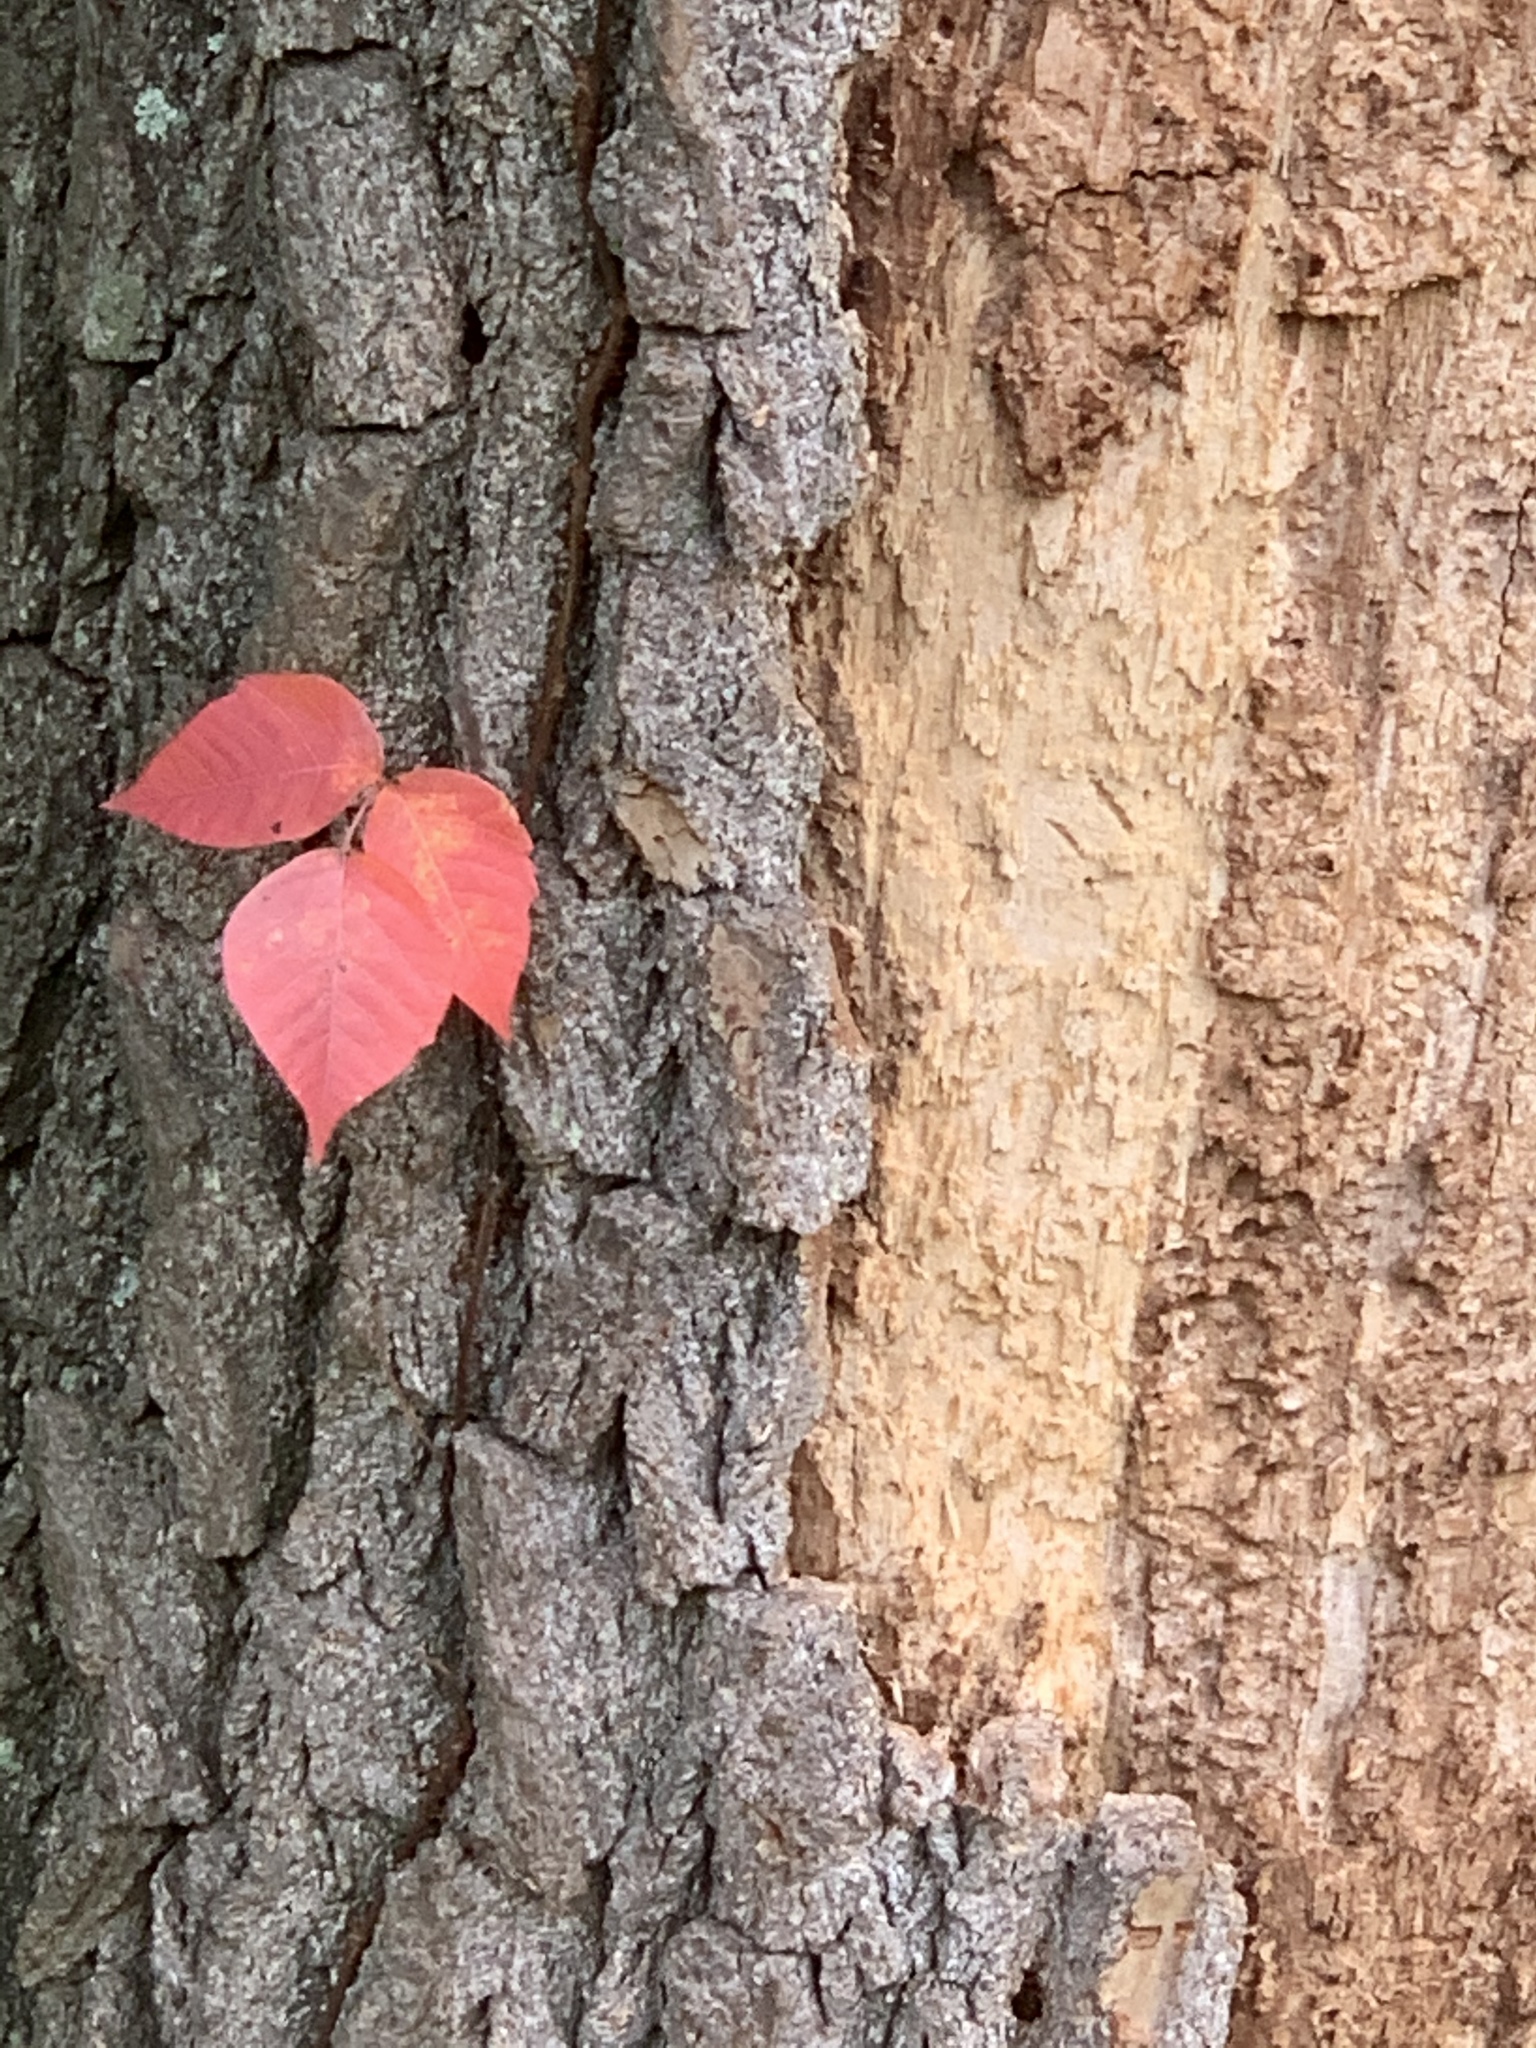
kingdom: Plantae
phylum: Tracheophyta
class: Magnoliopsida
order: Sapindales
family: Anacardiaceae
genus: Toxicodendron
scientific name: Toxicodendron radicans
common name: Poison ivy
